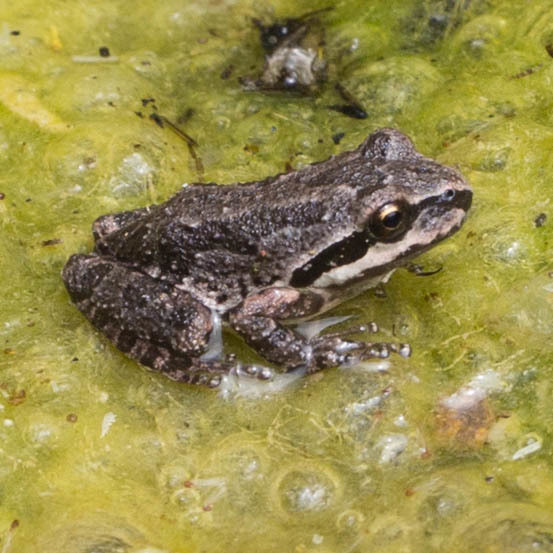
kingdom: Animalia
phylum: Chordata
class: Amphibia
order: Anura
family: Hylidae
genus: Pseudacris
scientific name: Pseudacris regilla
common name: Pacific chorus frog
